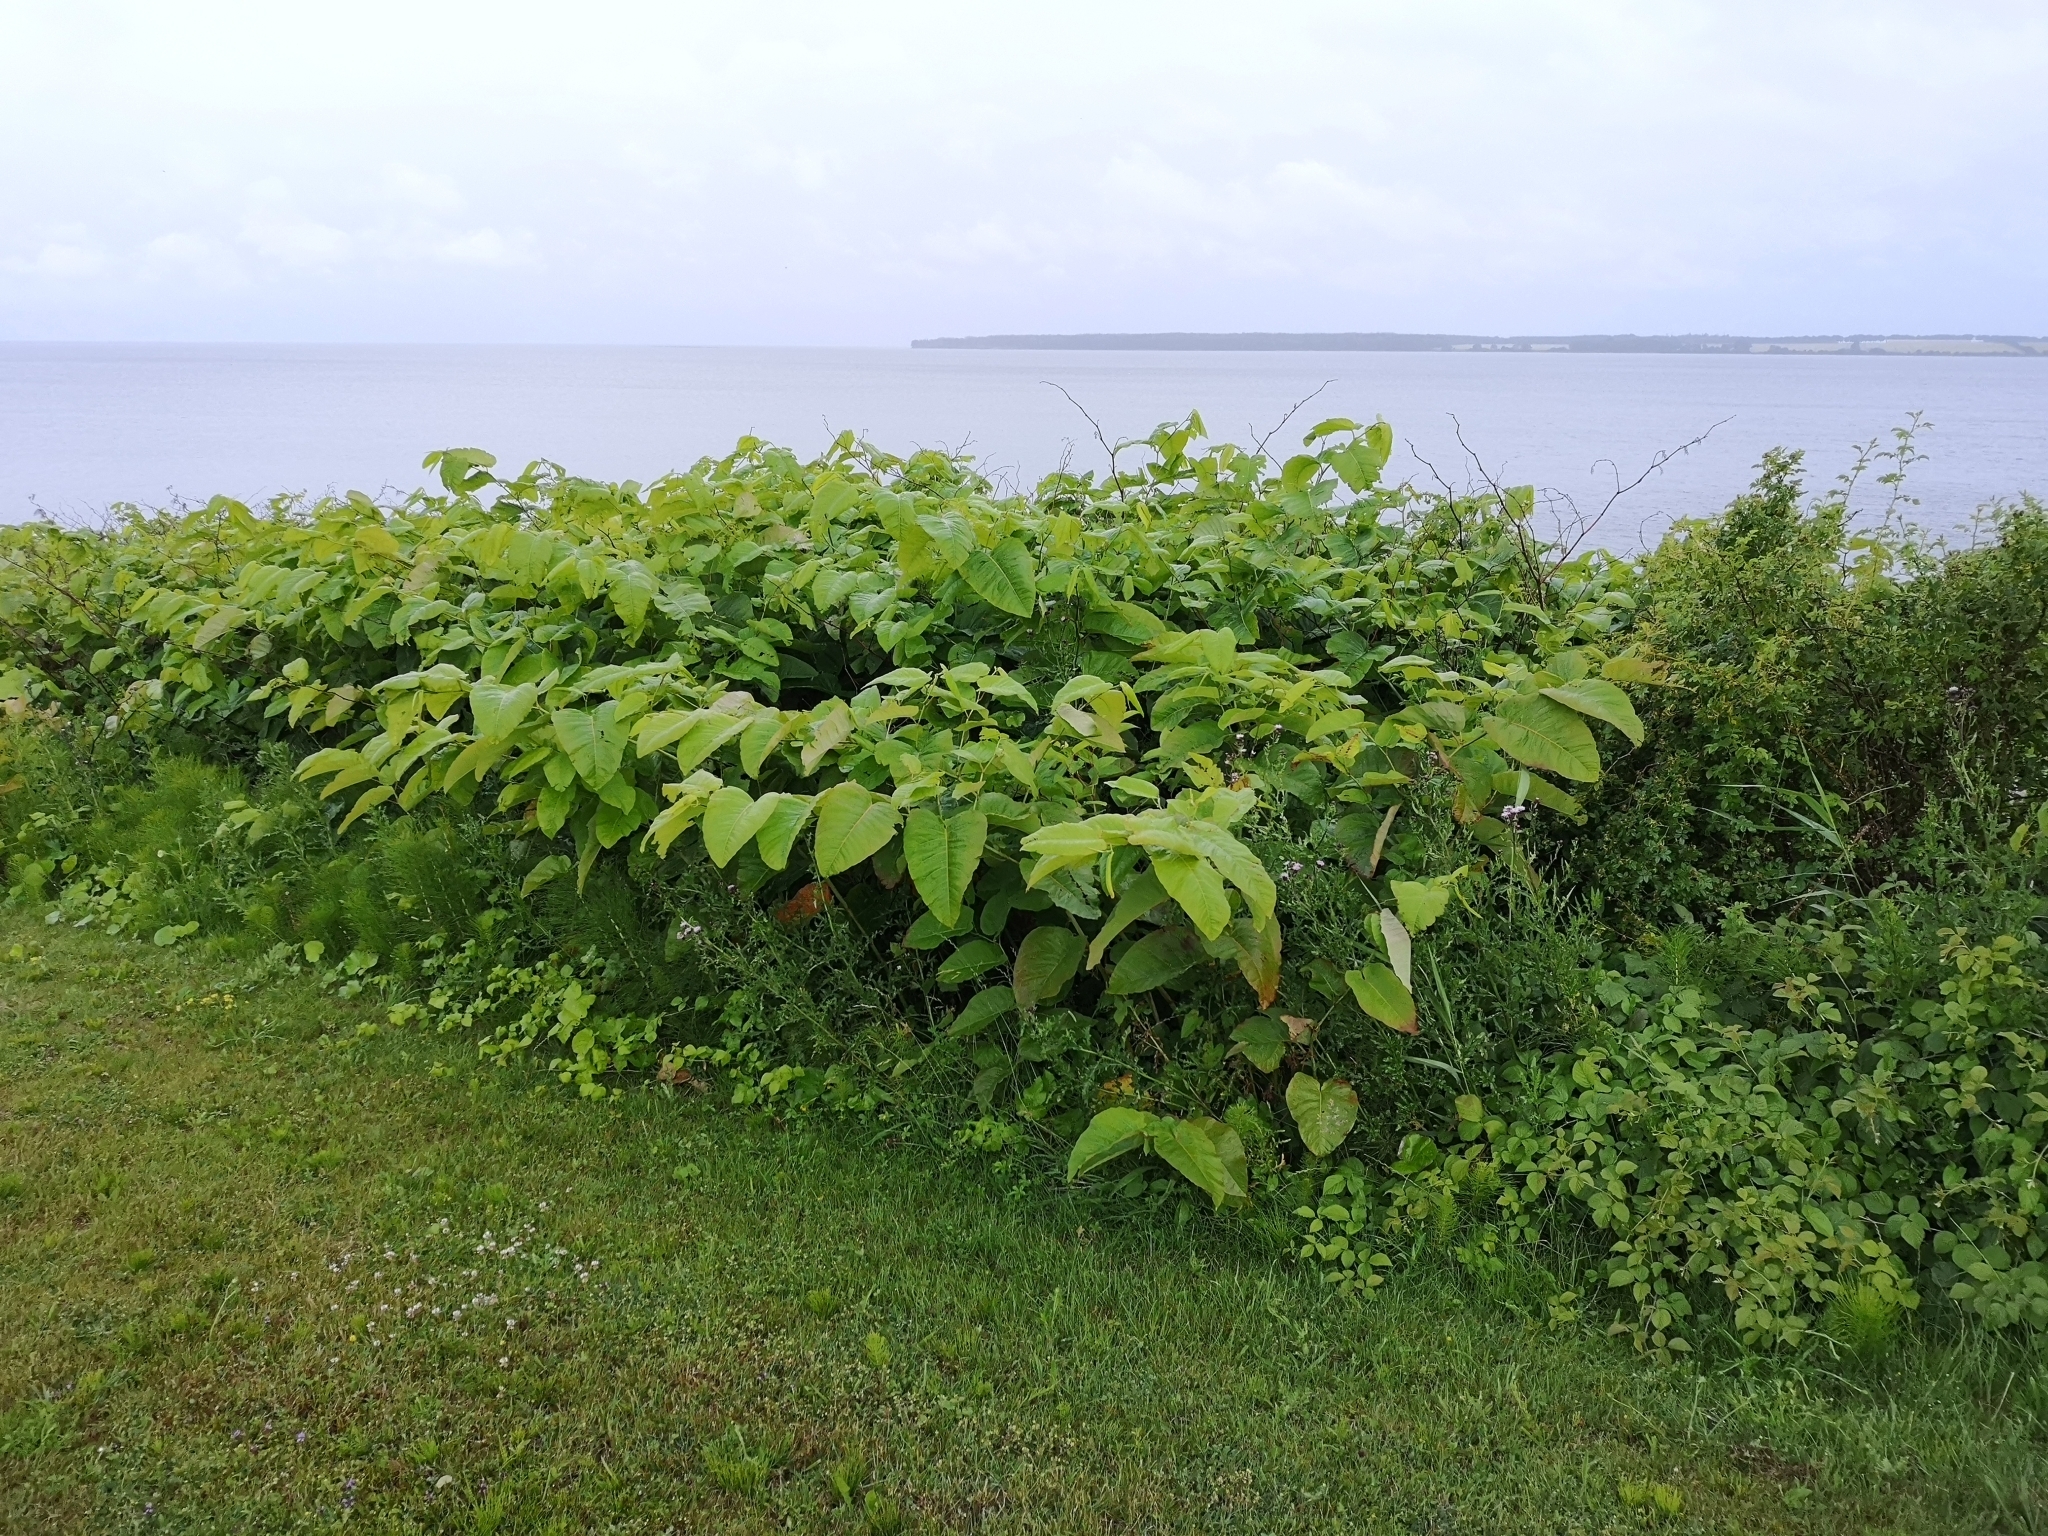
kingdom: Plantae
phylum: Tracheophyta
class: Magnoliopsida
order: Caryophyllales
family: Polygonaceae
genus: Reynoutria
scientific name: Reynoutria sachalinensis
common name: Giant knotweed
